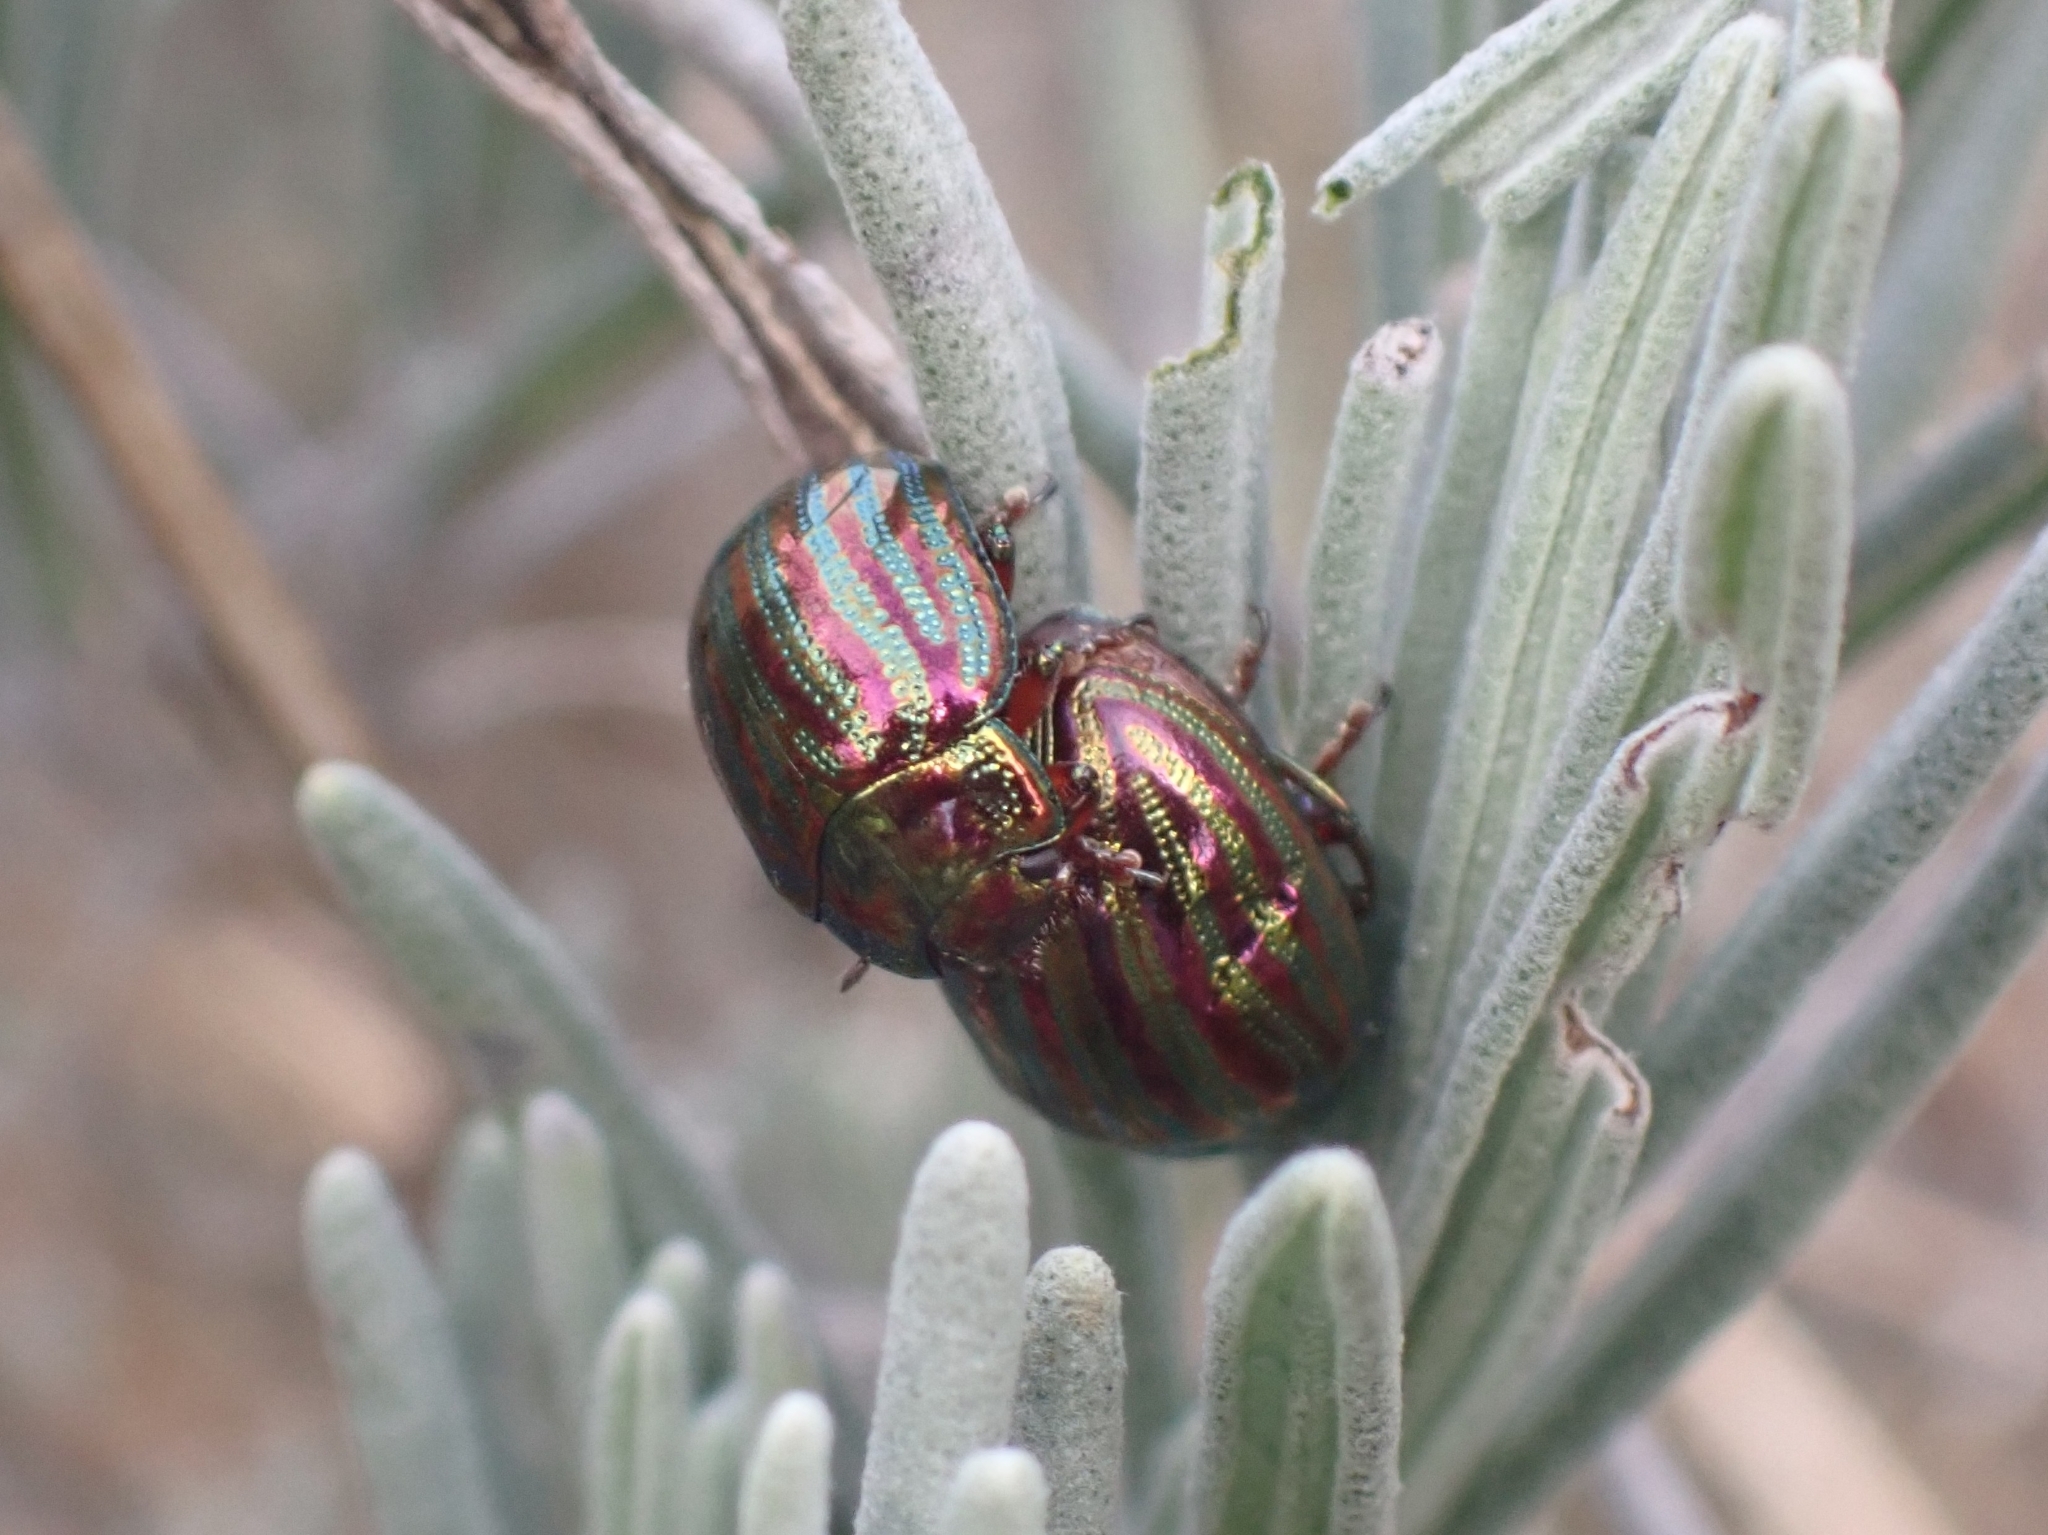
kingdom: Animalia
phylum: Arthropoda
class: Insecta
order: Coleoptera
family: Chrysomelidae
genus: Chrysolina
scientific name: Chrysolina americana
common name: Rosemary beetle
